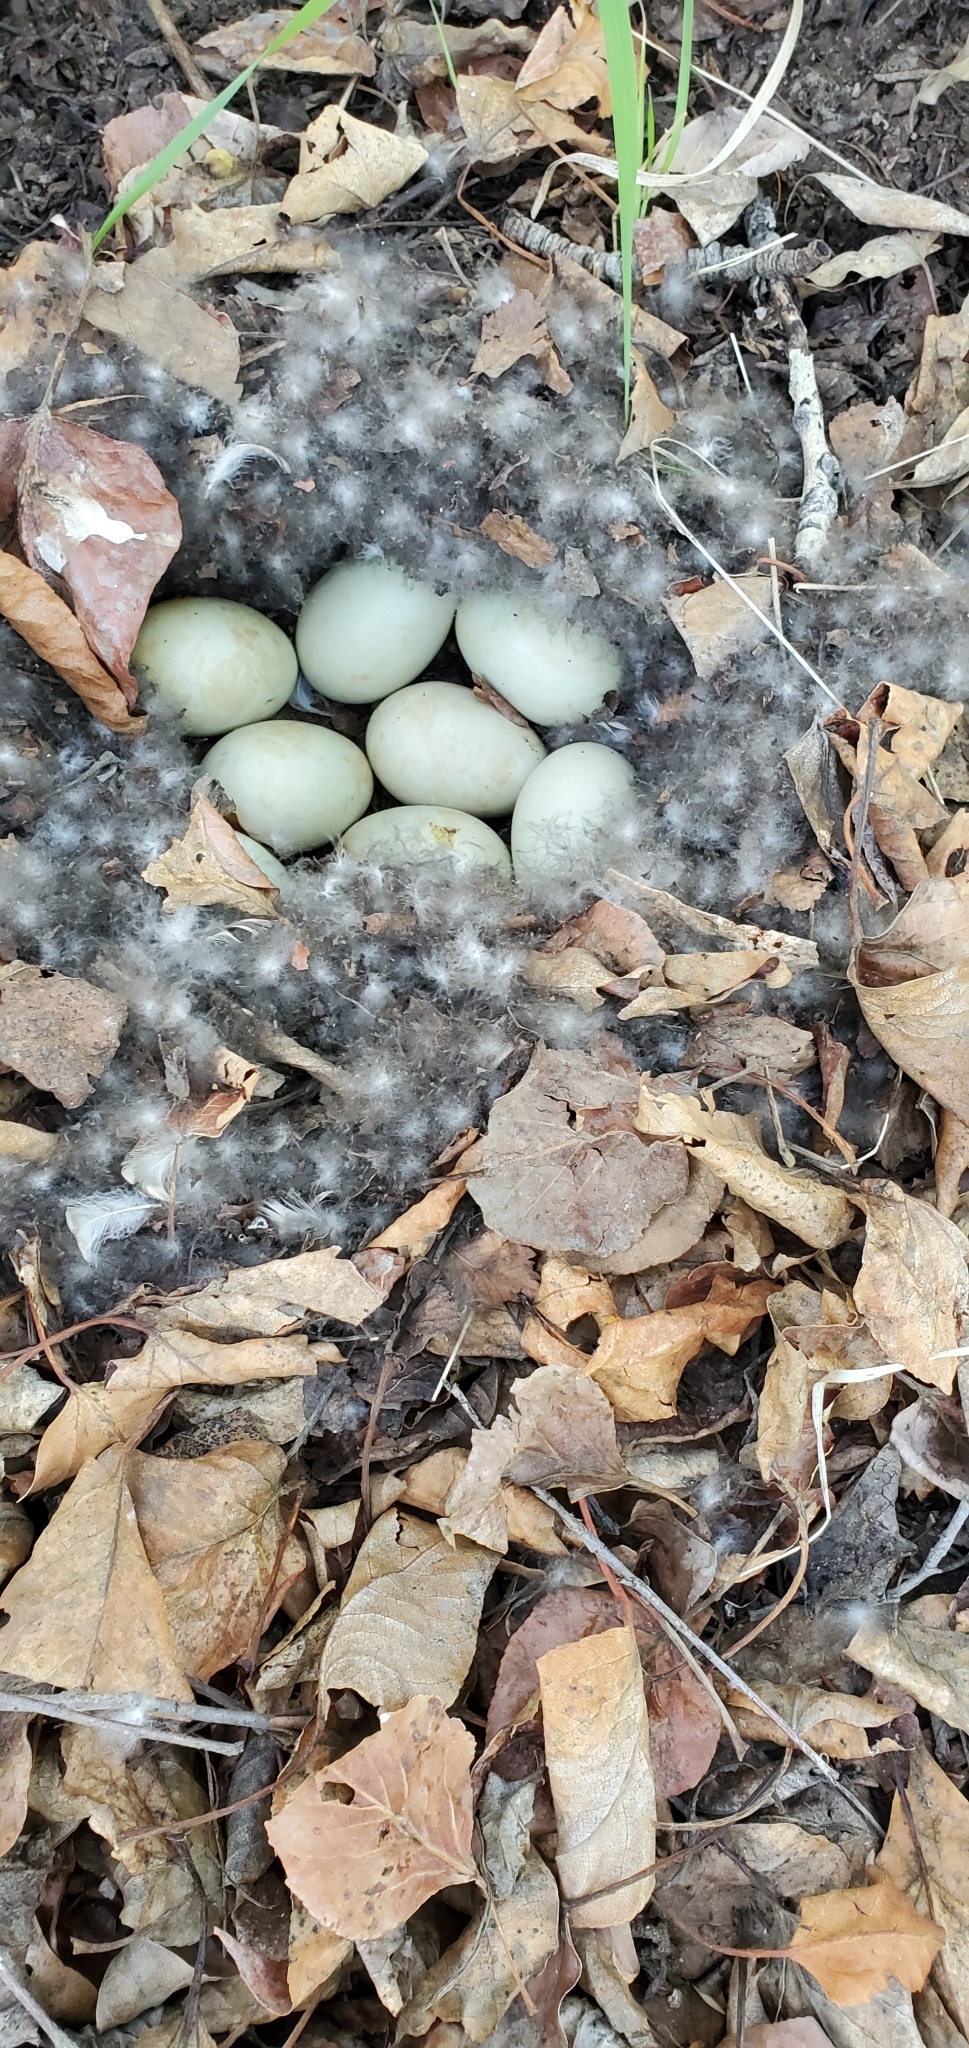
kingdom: Animalia
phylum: Chordata
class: Aves
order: Anseriformes
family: Anatidae
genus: Anas
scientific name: Anas platyrhynchos
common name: Mallard
